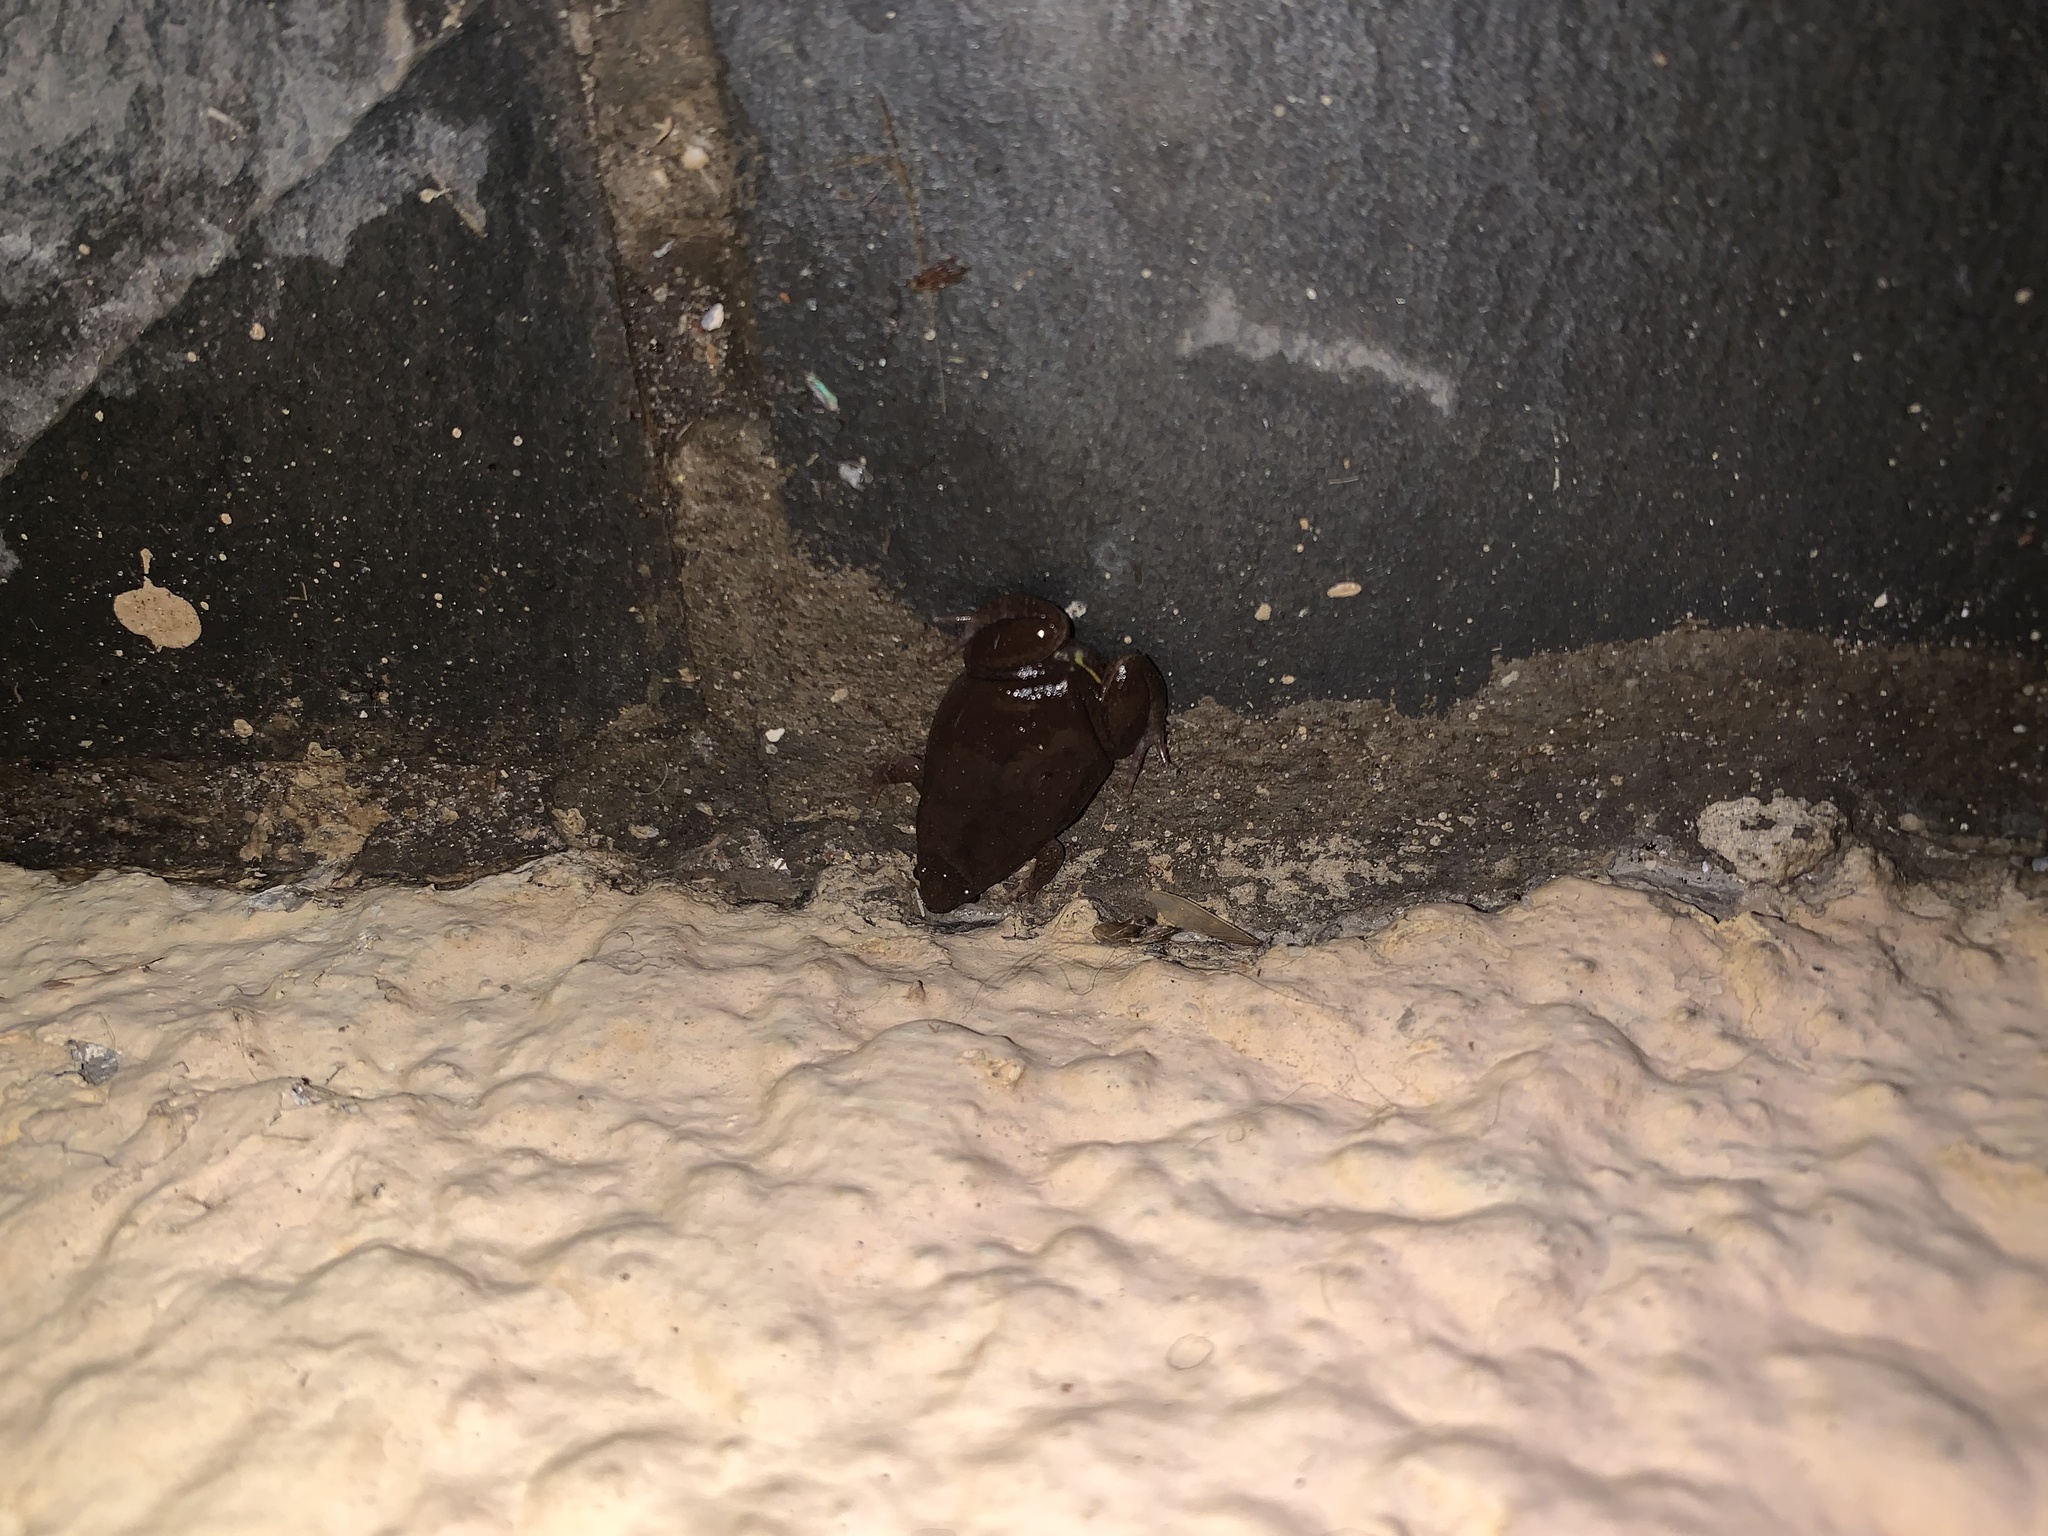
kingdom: Animalia
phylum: Chordata
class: Amphibia
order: Anura
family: Microhylidae
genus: Elachistocleis
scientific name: Elachistocleis bicolor
